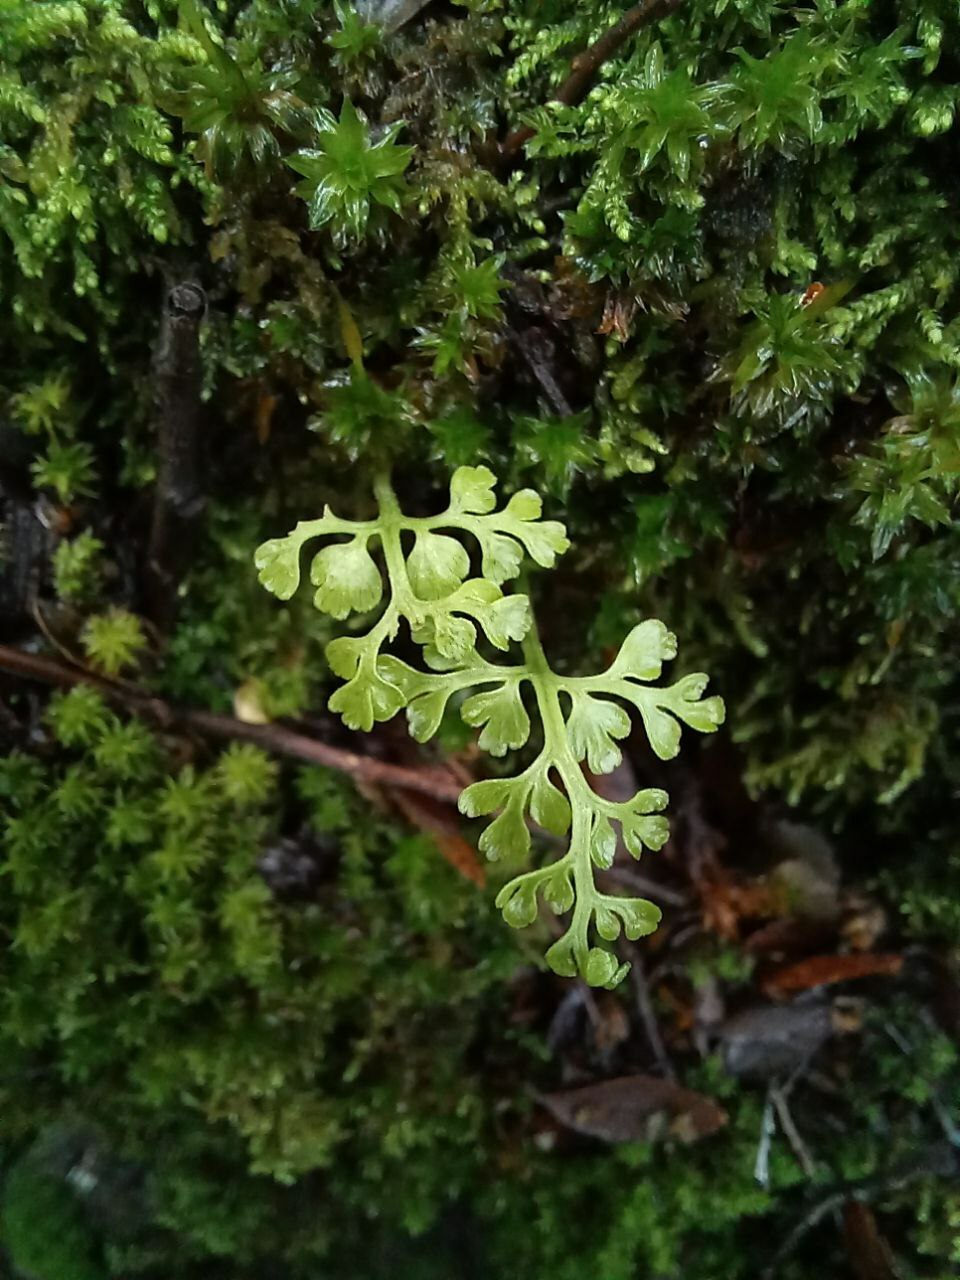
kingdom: Plantae
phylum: Tracheophyta
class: Polypodiopsida
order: Polypodiales
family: Aspleniaceae
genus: Asplenium
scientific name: Asplenium dareoides
